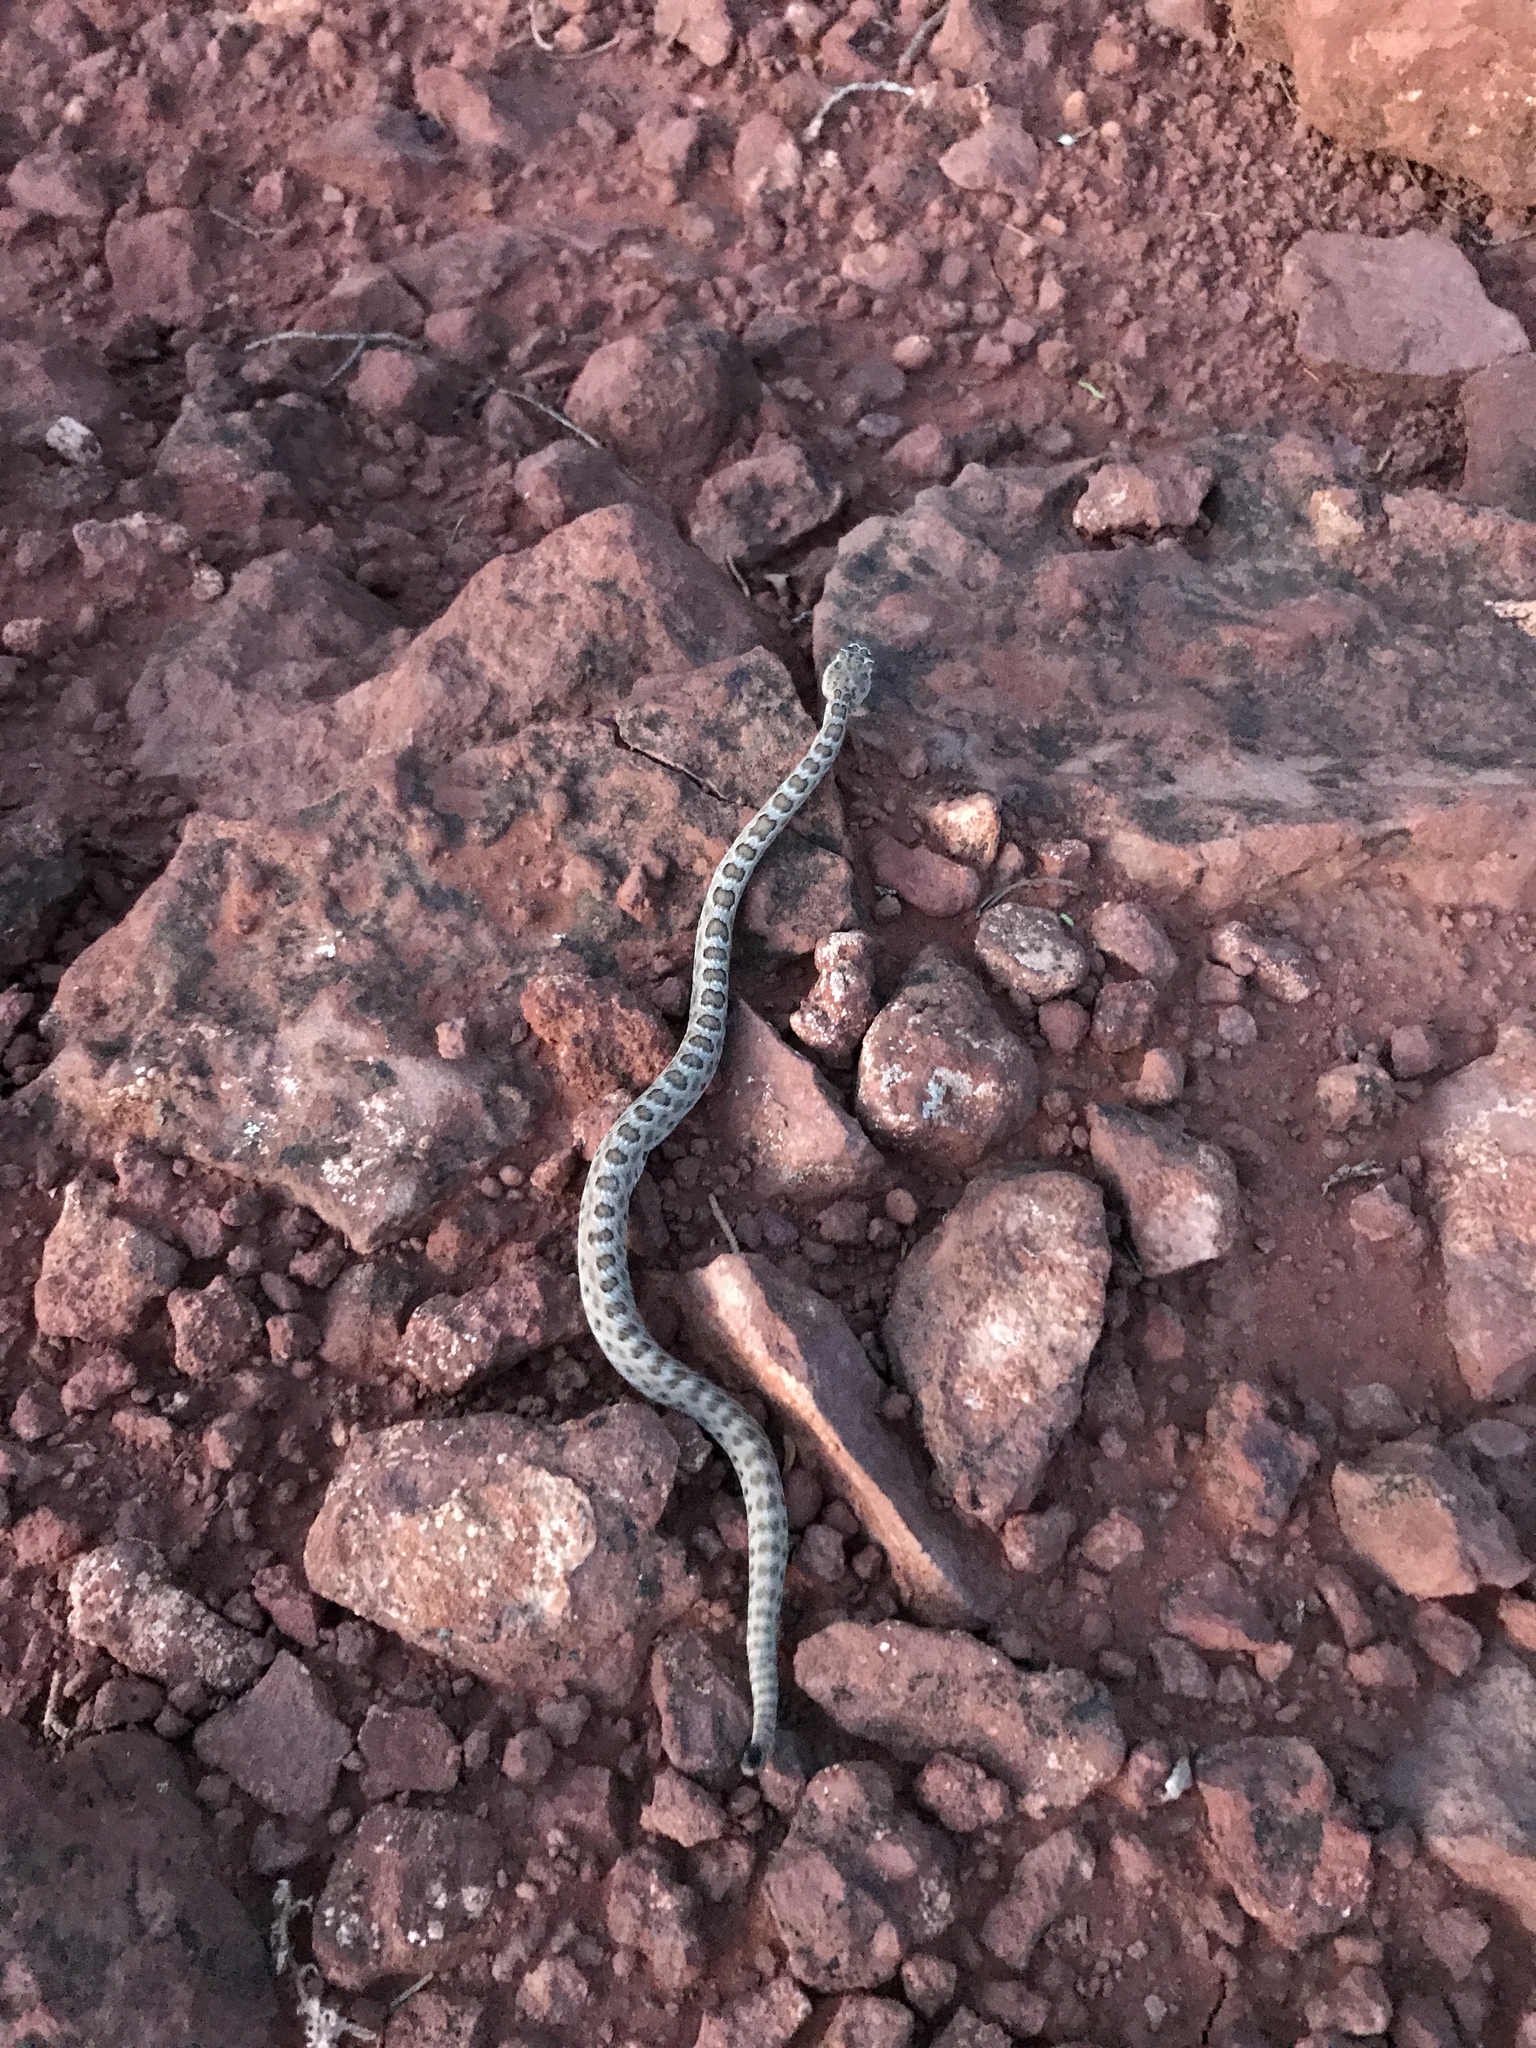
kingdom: Animalia
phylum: Chordata
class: Squamata
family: Viperidae
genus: Crotalus
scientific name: Crotalus oreganus
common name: Abyssus
